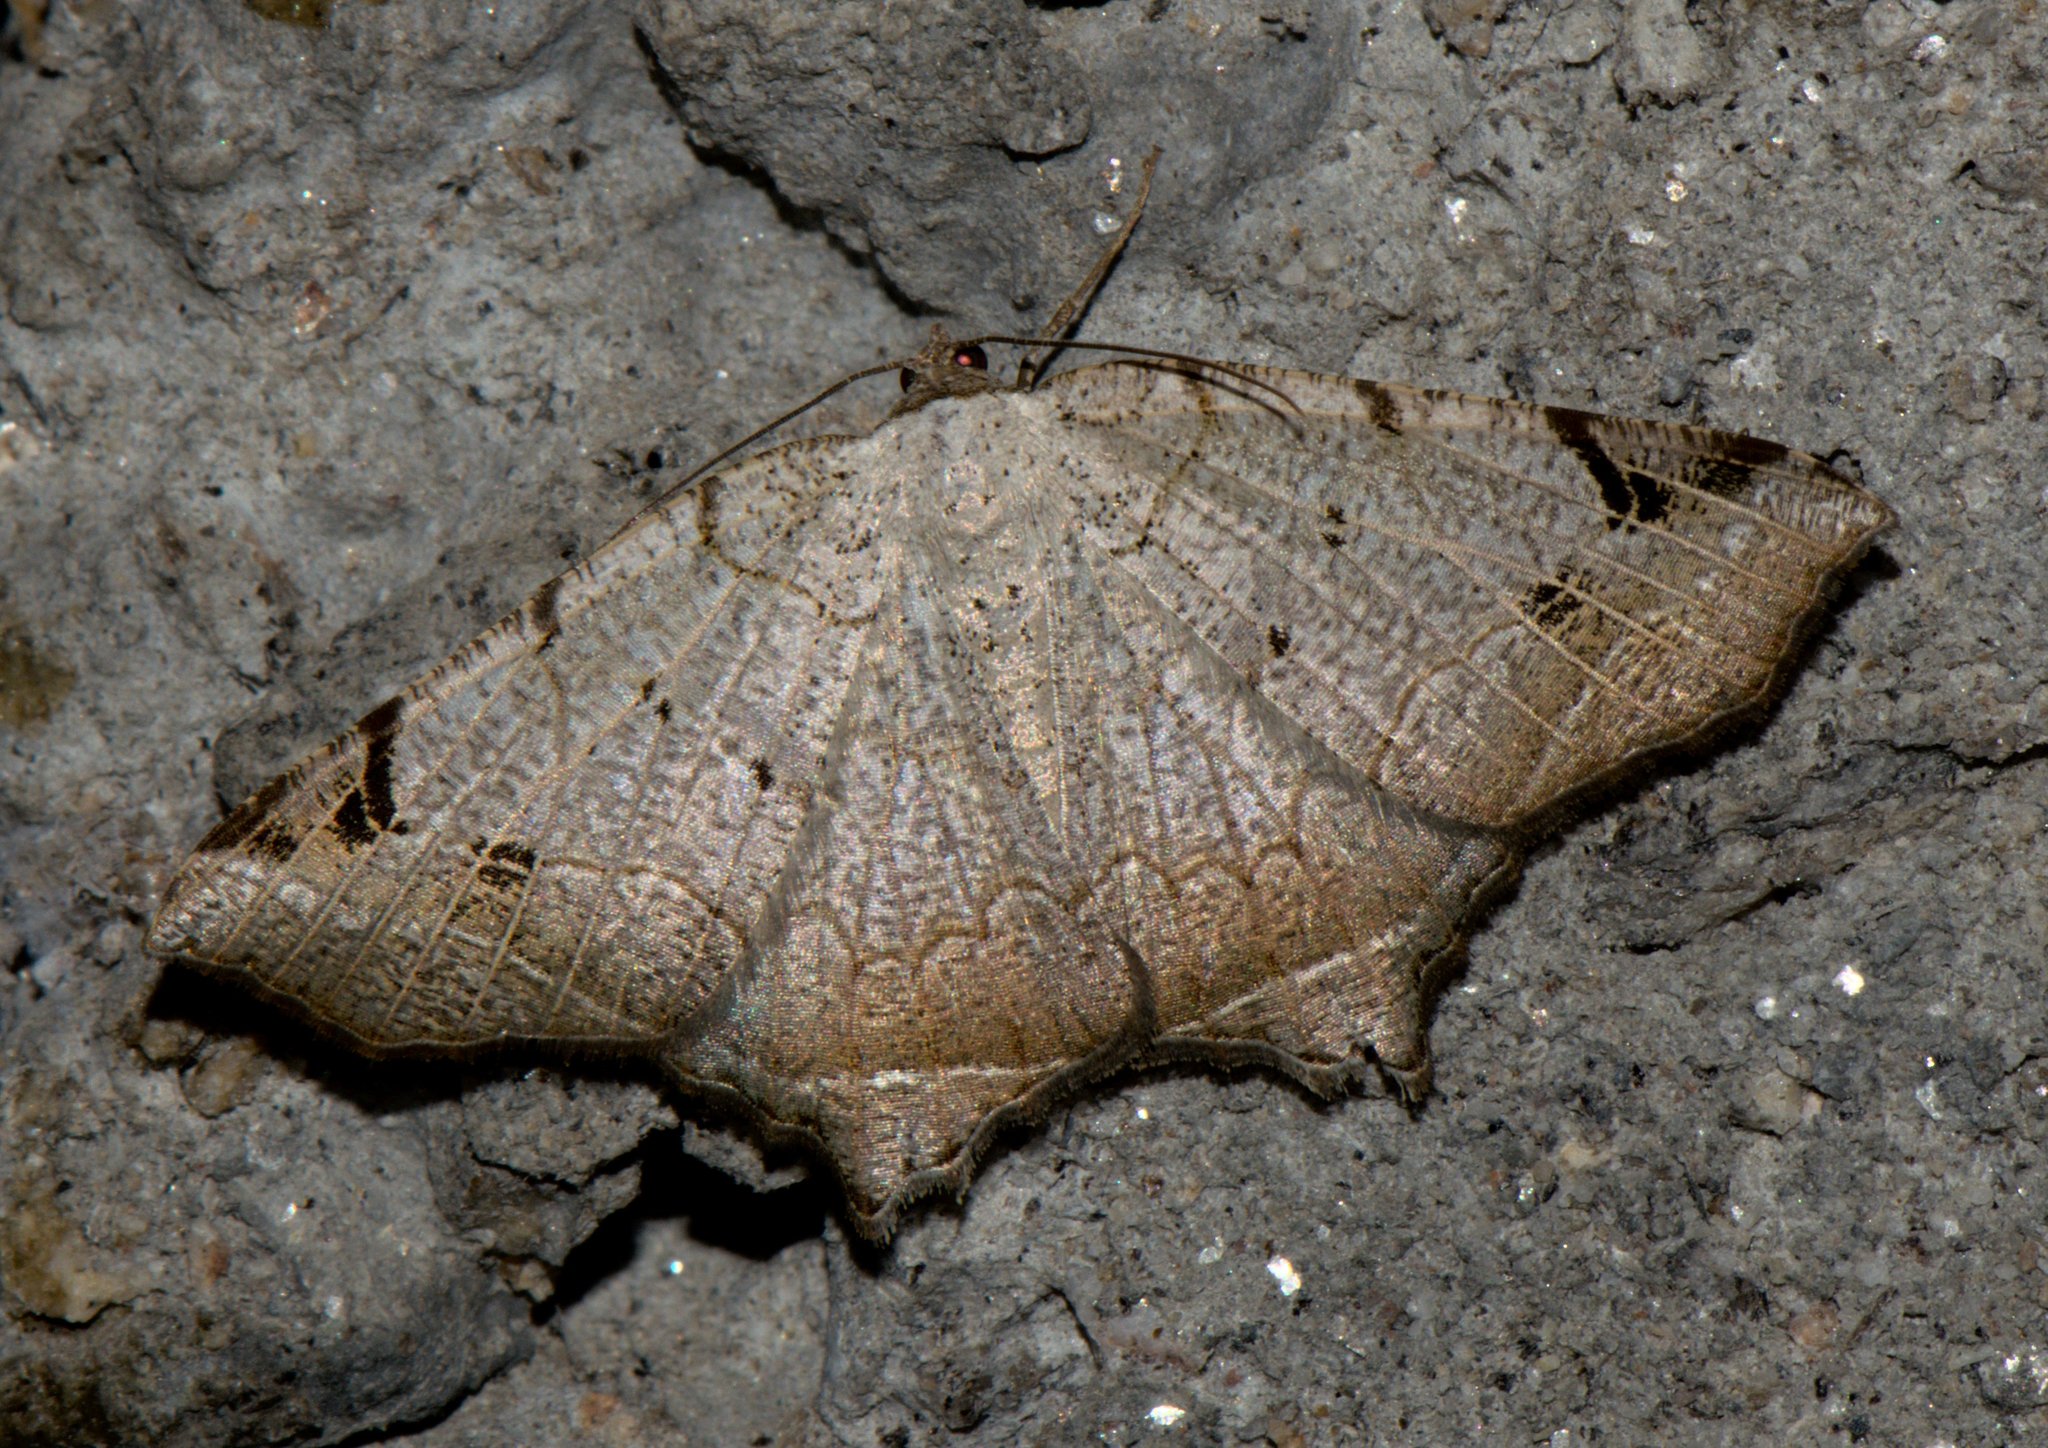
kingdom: Animalia
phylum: Arthropoda
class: Insecta
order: Lepidoptera
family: Geometridae
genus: Oxymacaria
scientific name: Oxymacaria penumbrata
